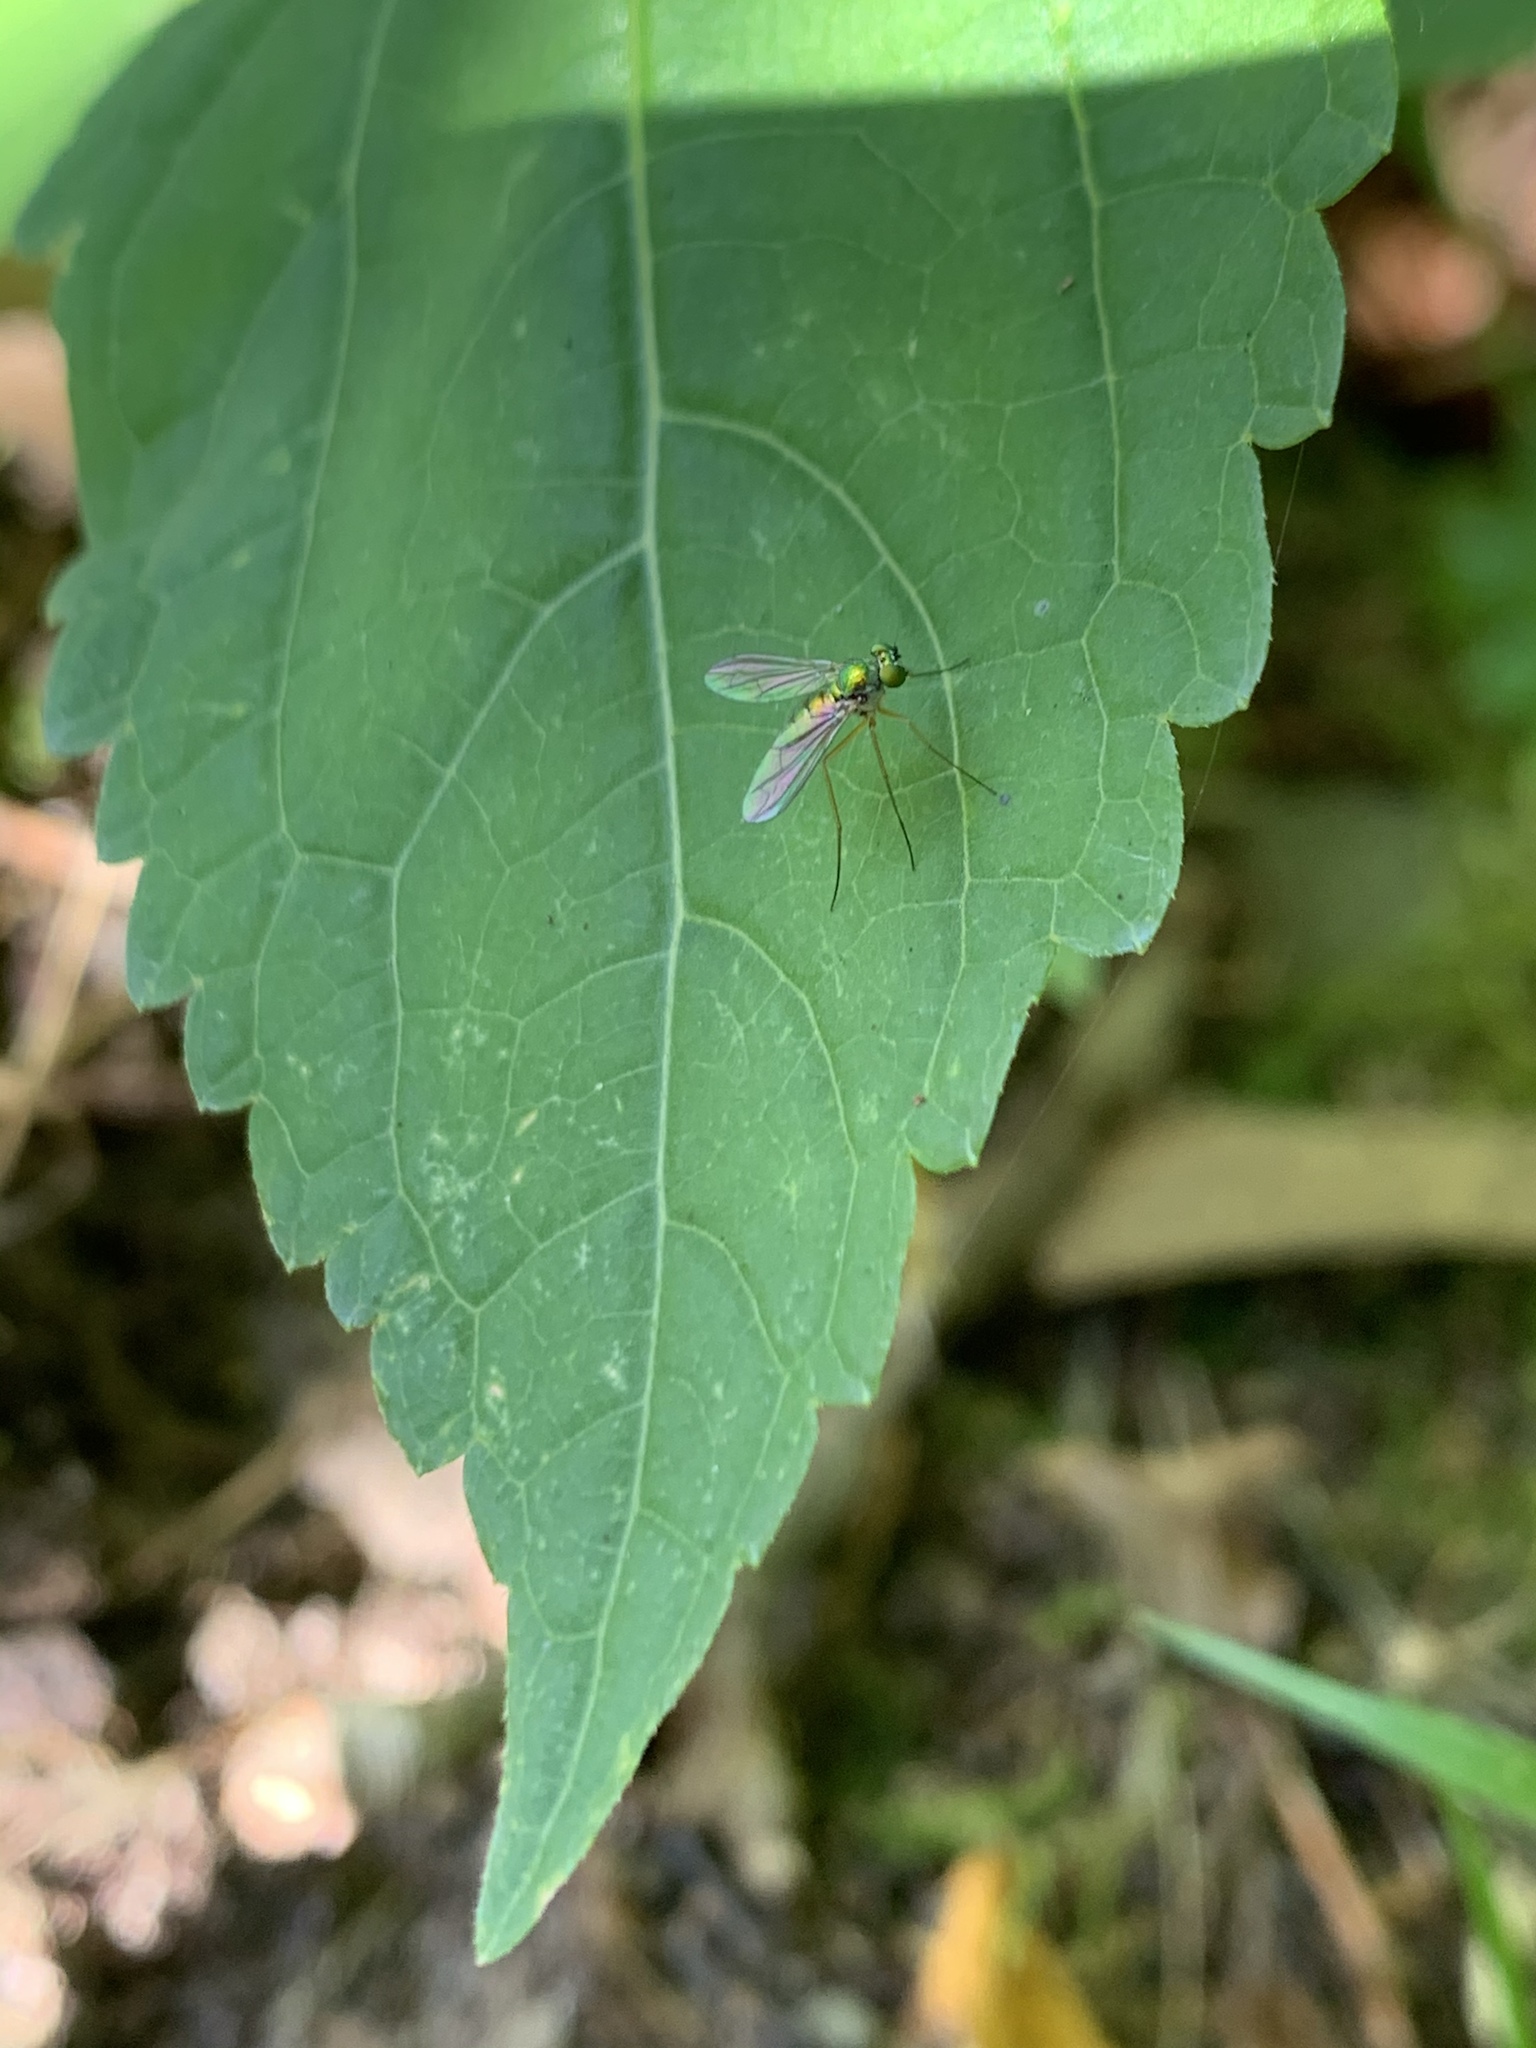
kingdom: Animalia
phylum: Arthropoda
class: Insecta
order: Diptera
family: Dolichopodidae
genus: Amblypsilopus
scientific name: Amblypsilopus scintillans
